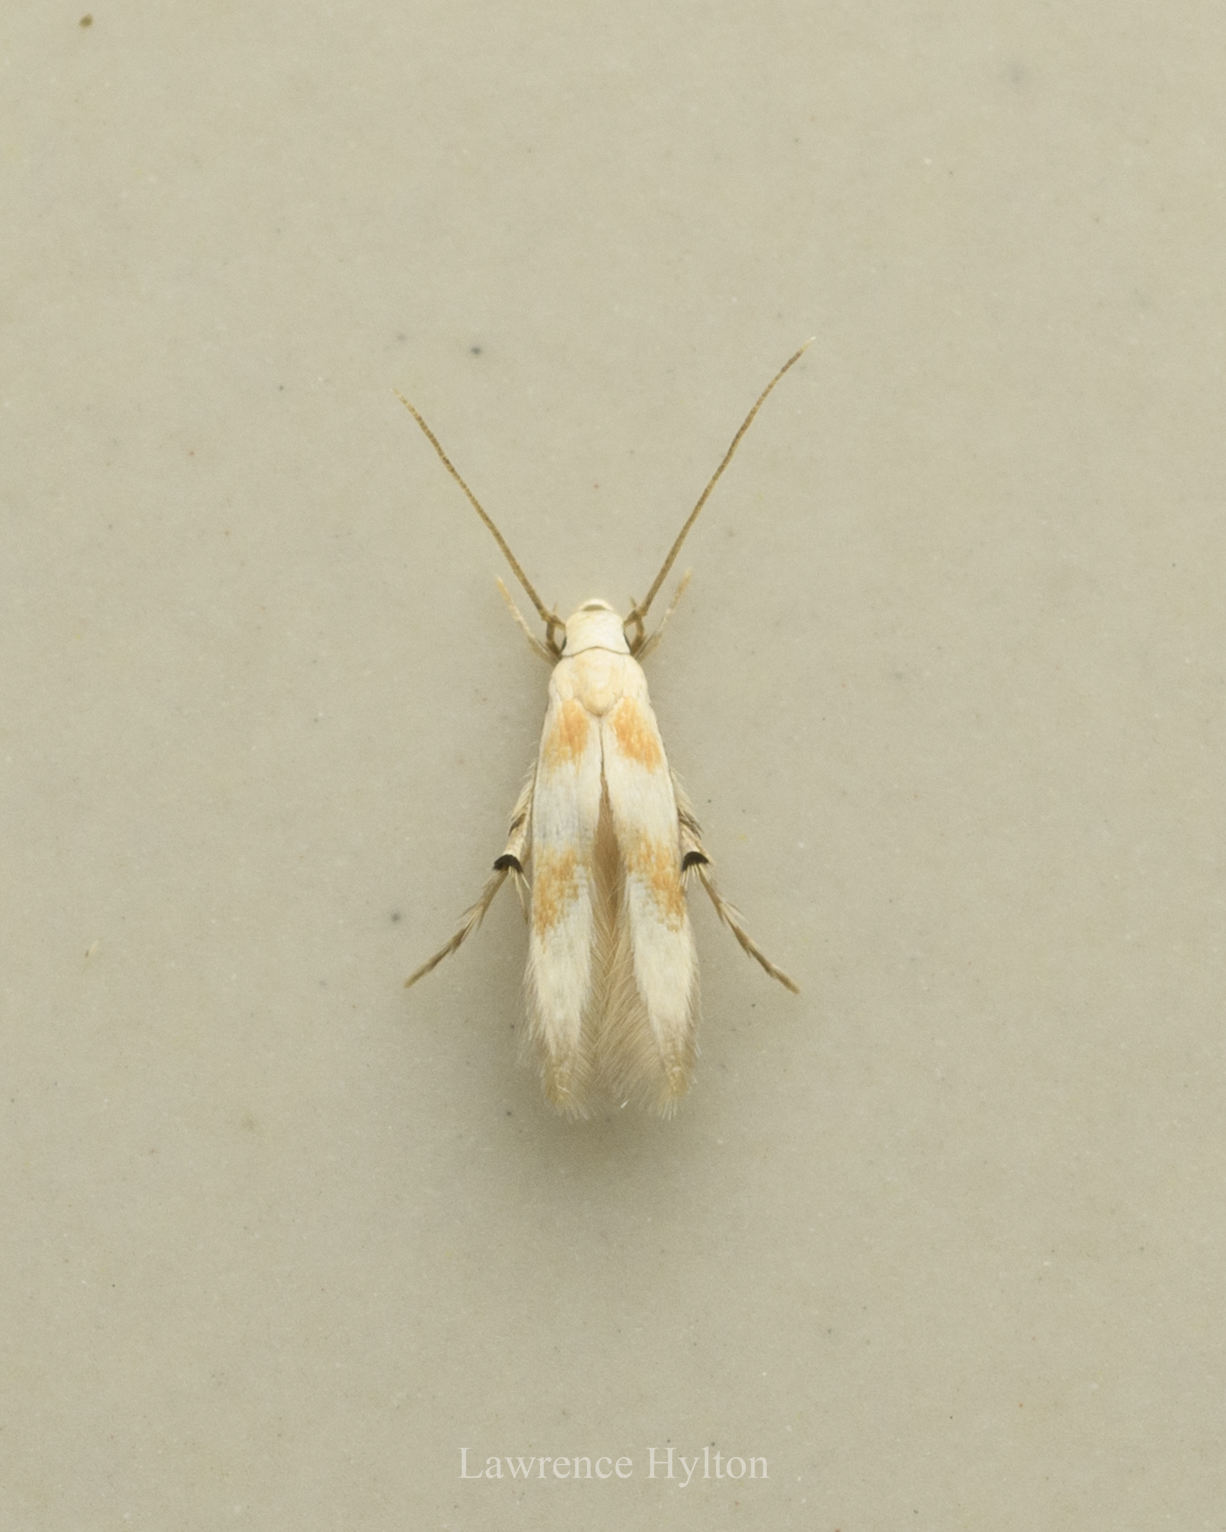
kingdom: Animalia
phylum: Arthropoda
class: Insecta
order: Lepidoptera
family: Stathmopodidae
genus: Pachyrhabda
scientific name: Pachyrhabda epichlora
